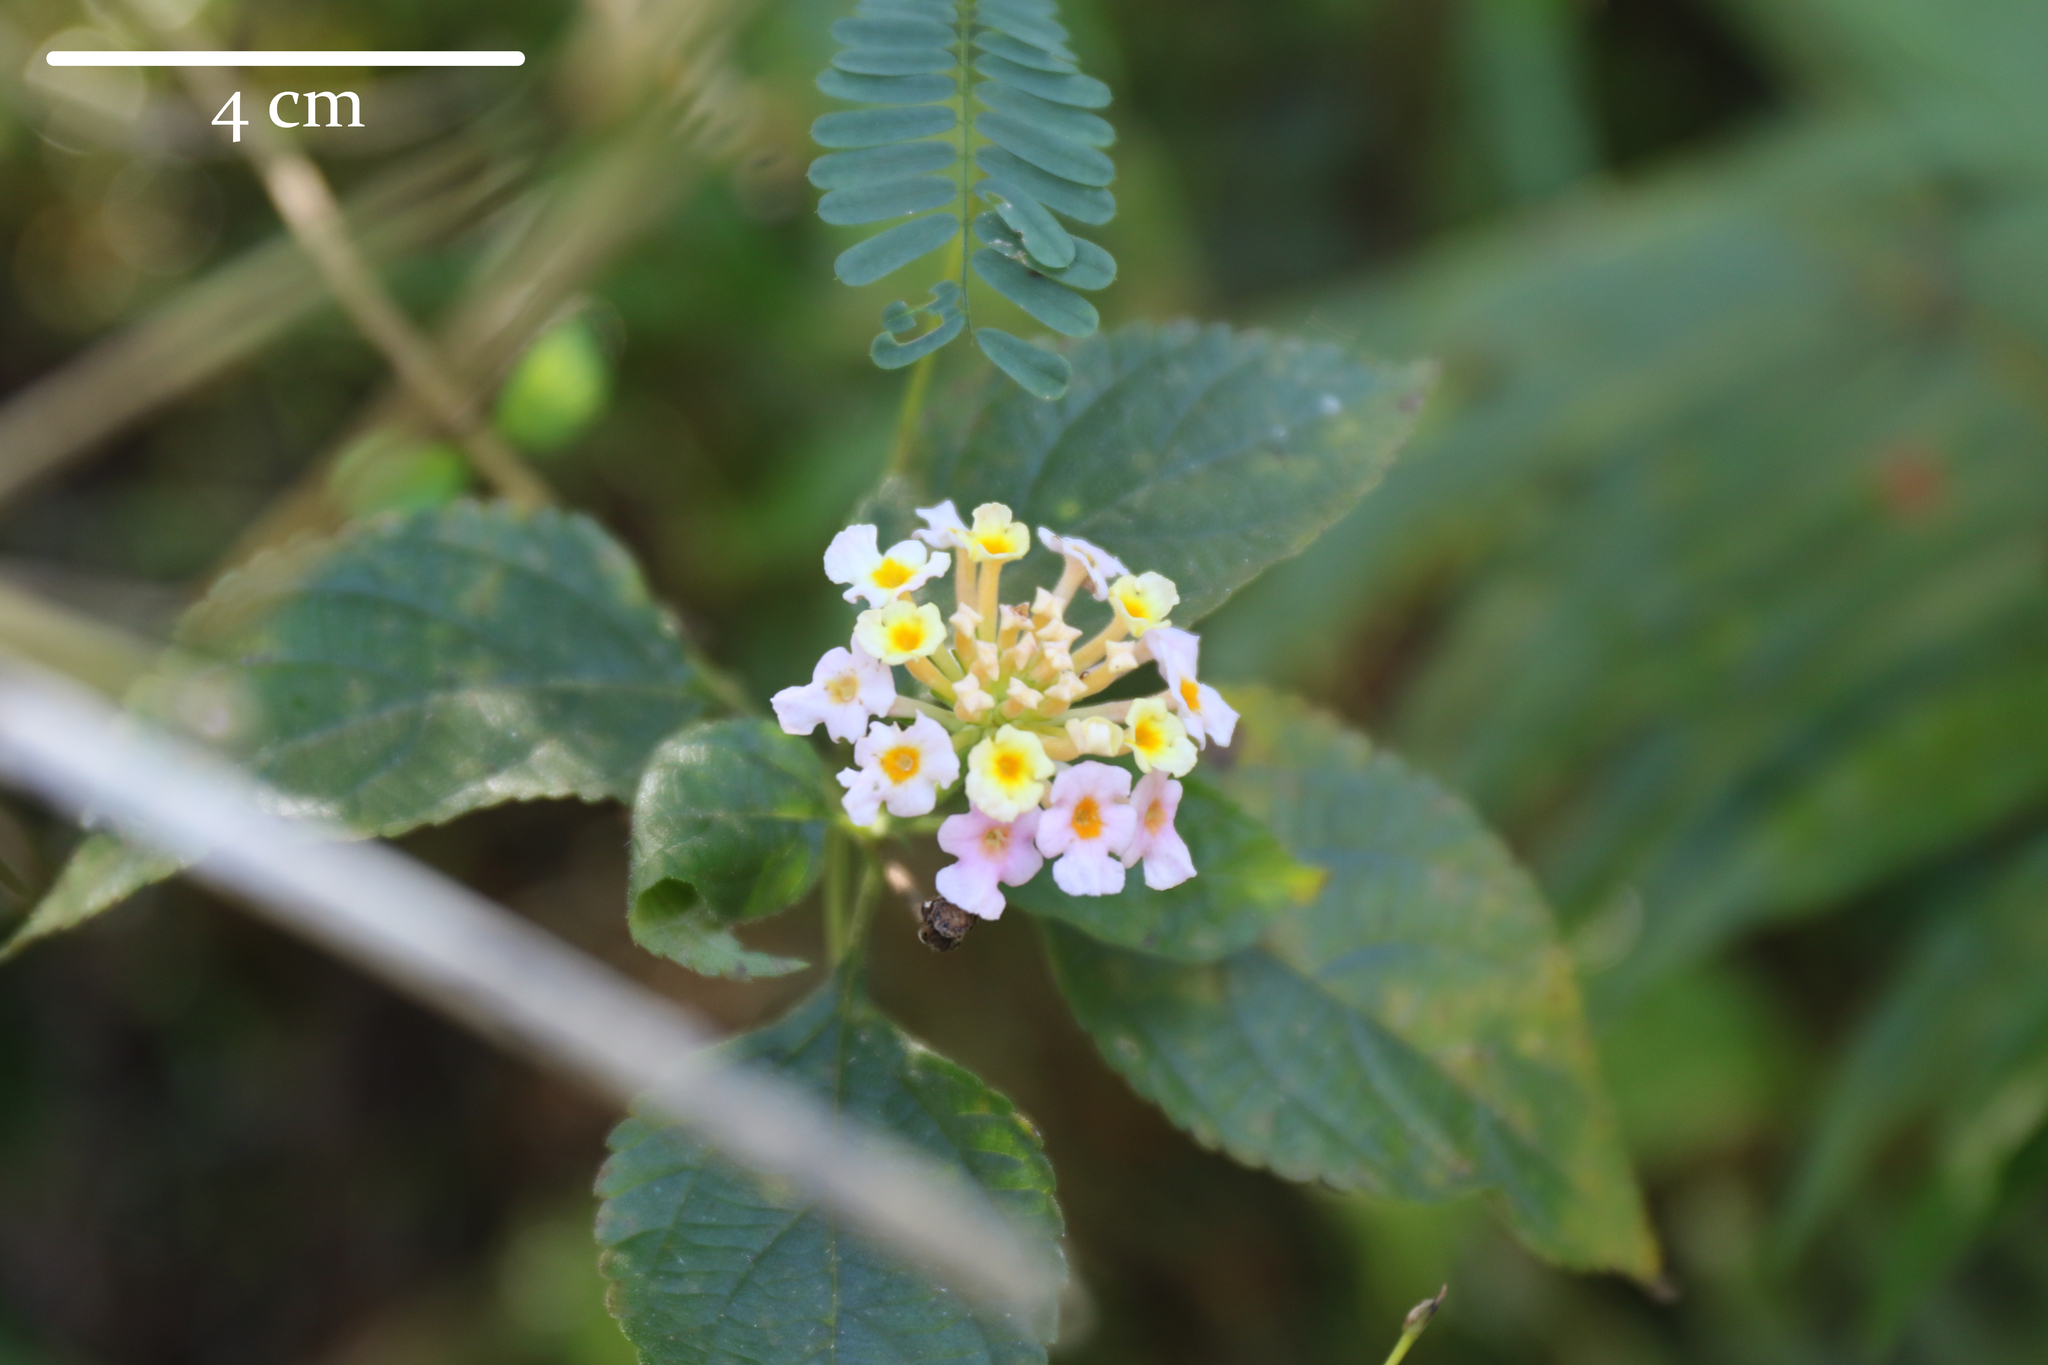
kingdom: Plantae
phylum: Tracheophyta
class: Magnoliopsida
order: Lamiales
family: Verbenaceae
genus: Lantana
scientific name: Lantana camara
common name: Lantana
